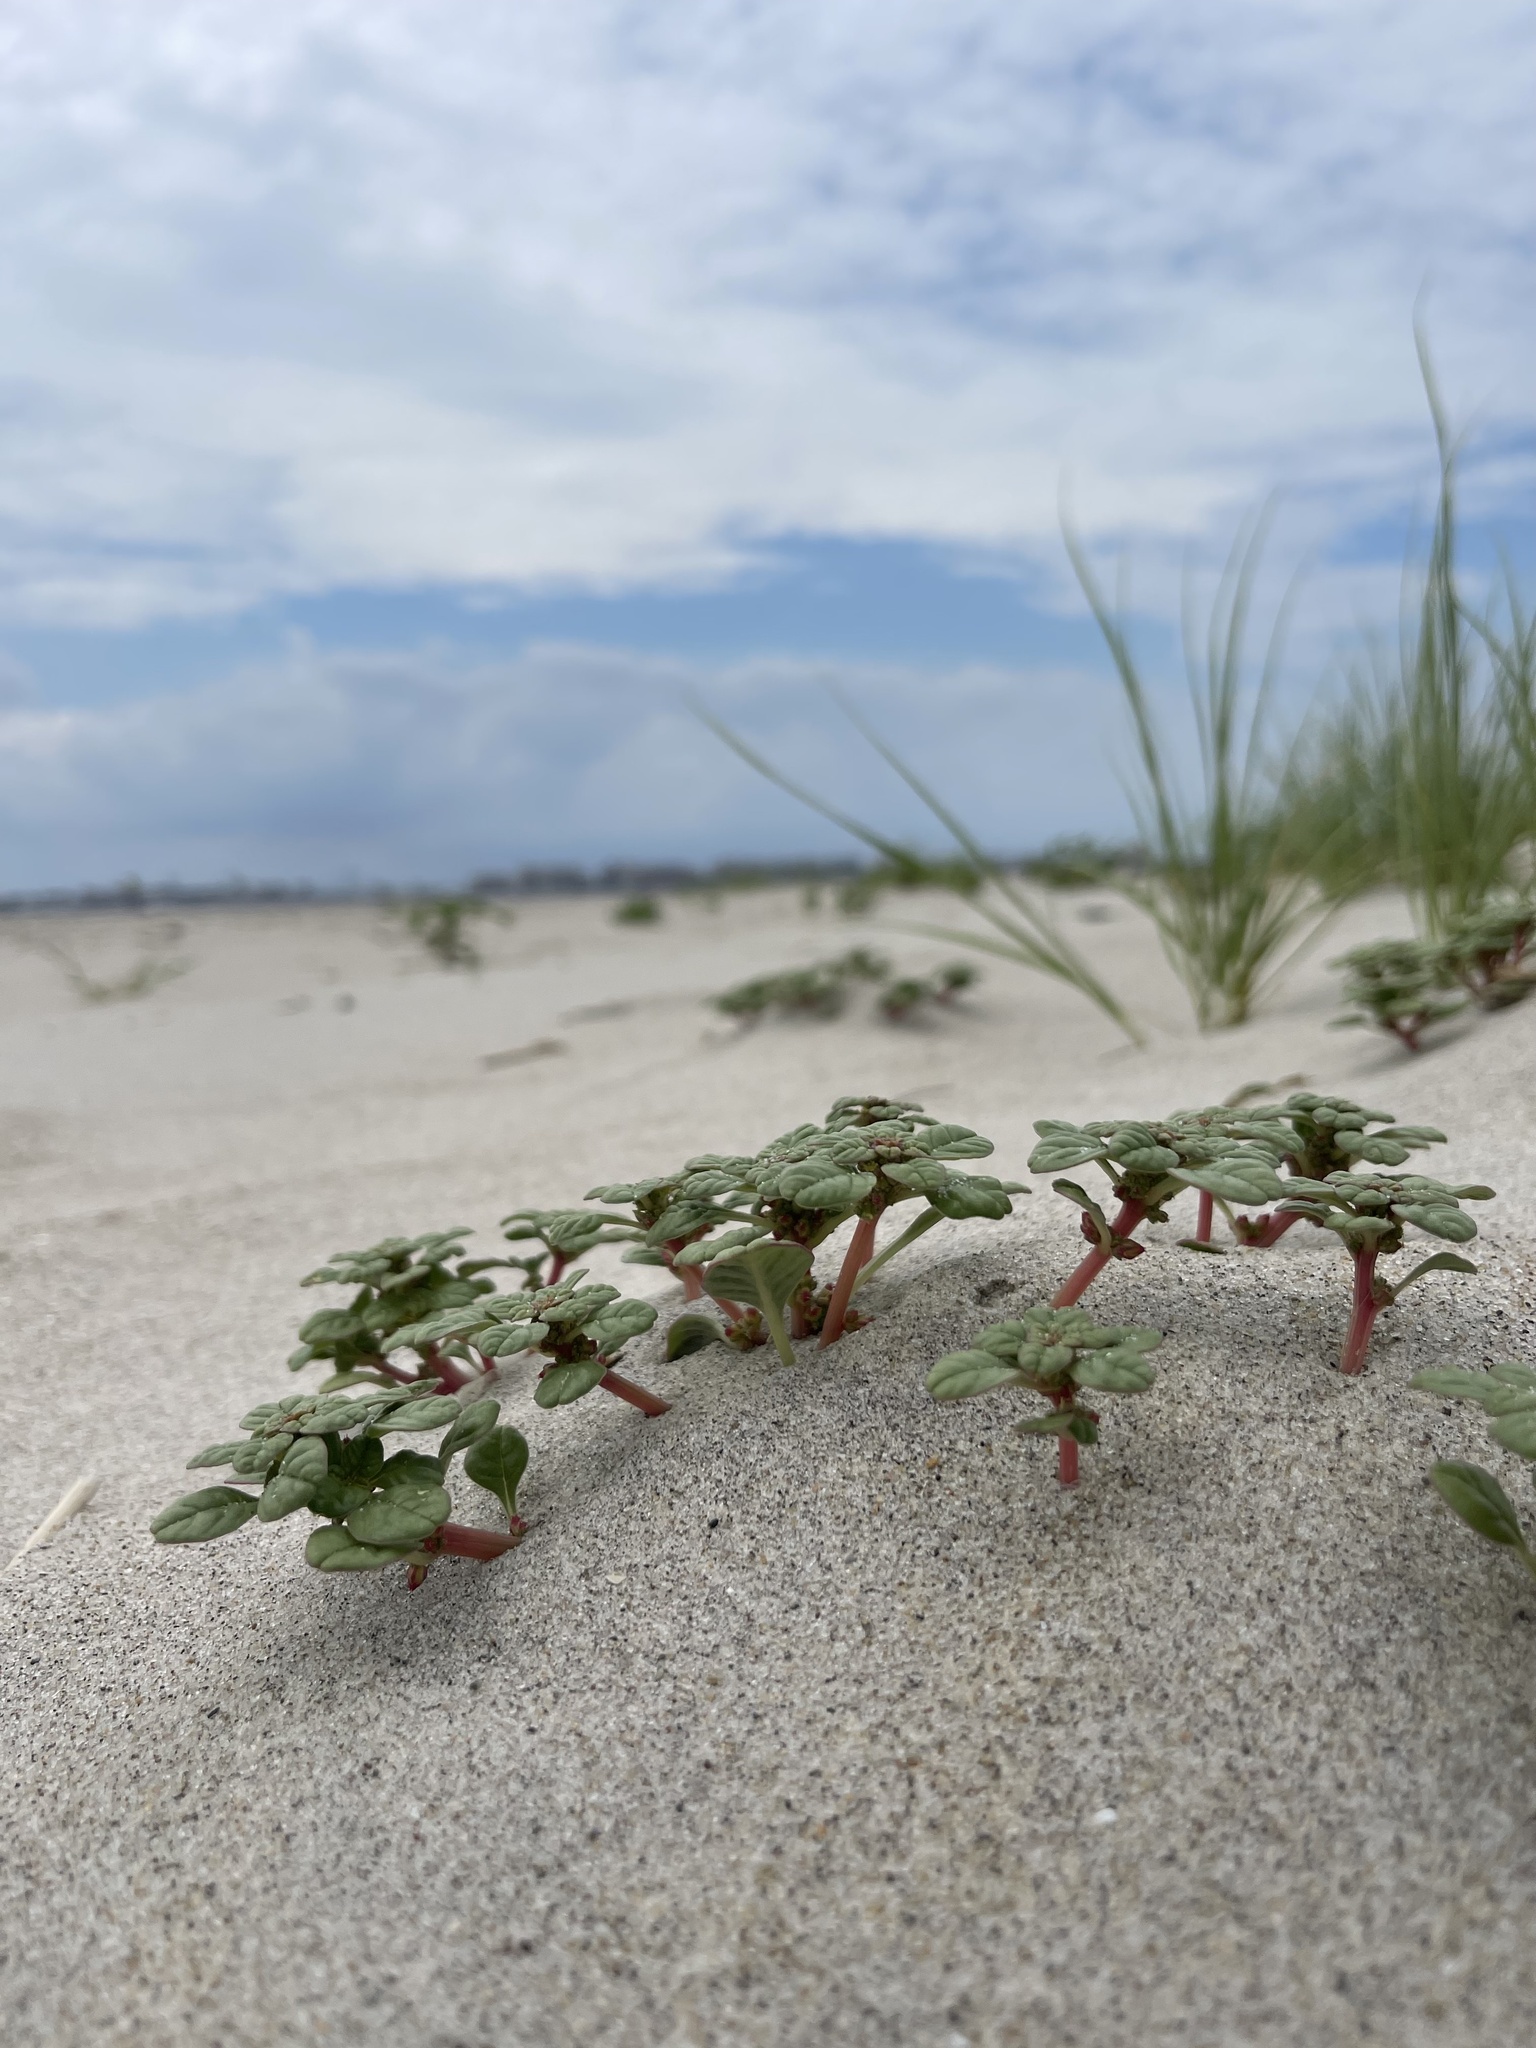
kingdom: Plantae
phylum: Tracheophyta
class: Magnoliopsida
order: Caryophyllales
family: Amaranthaceae
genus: Amaranthus
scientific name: Amaranthus pumilus
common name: Coast amaranth
